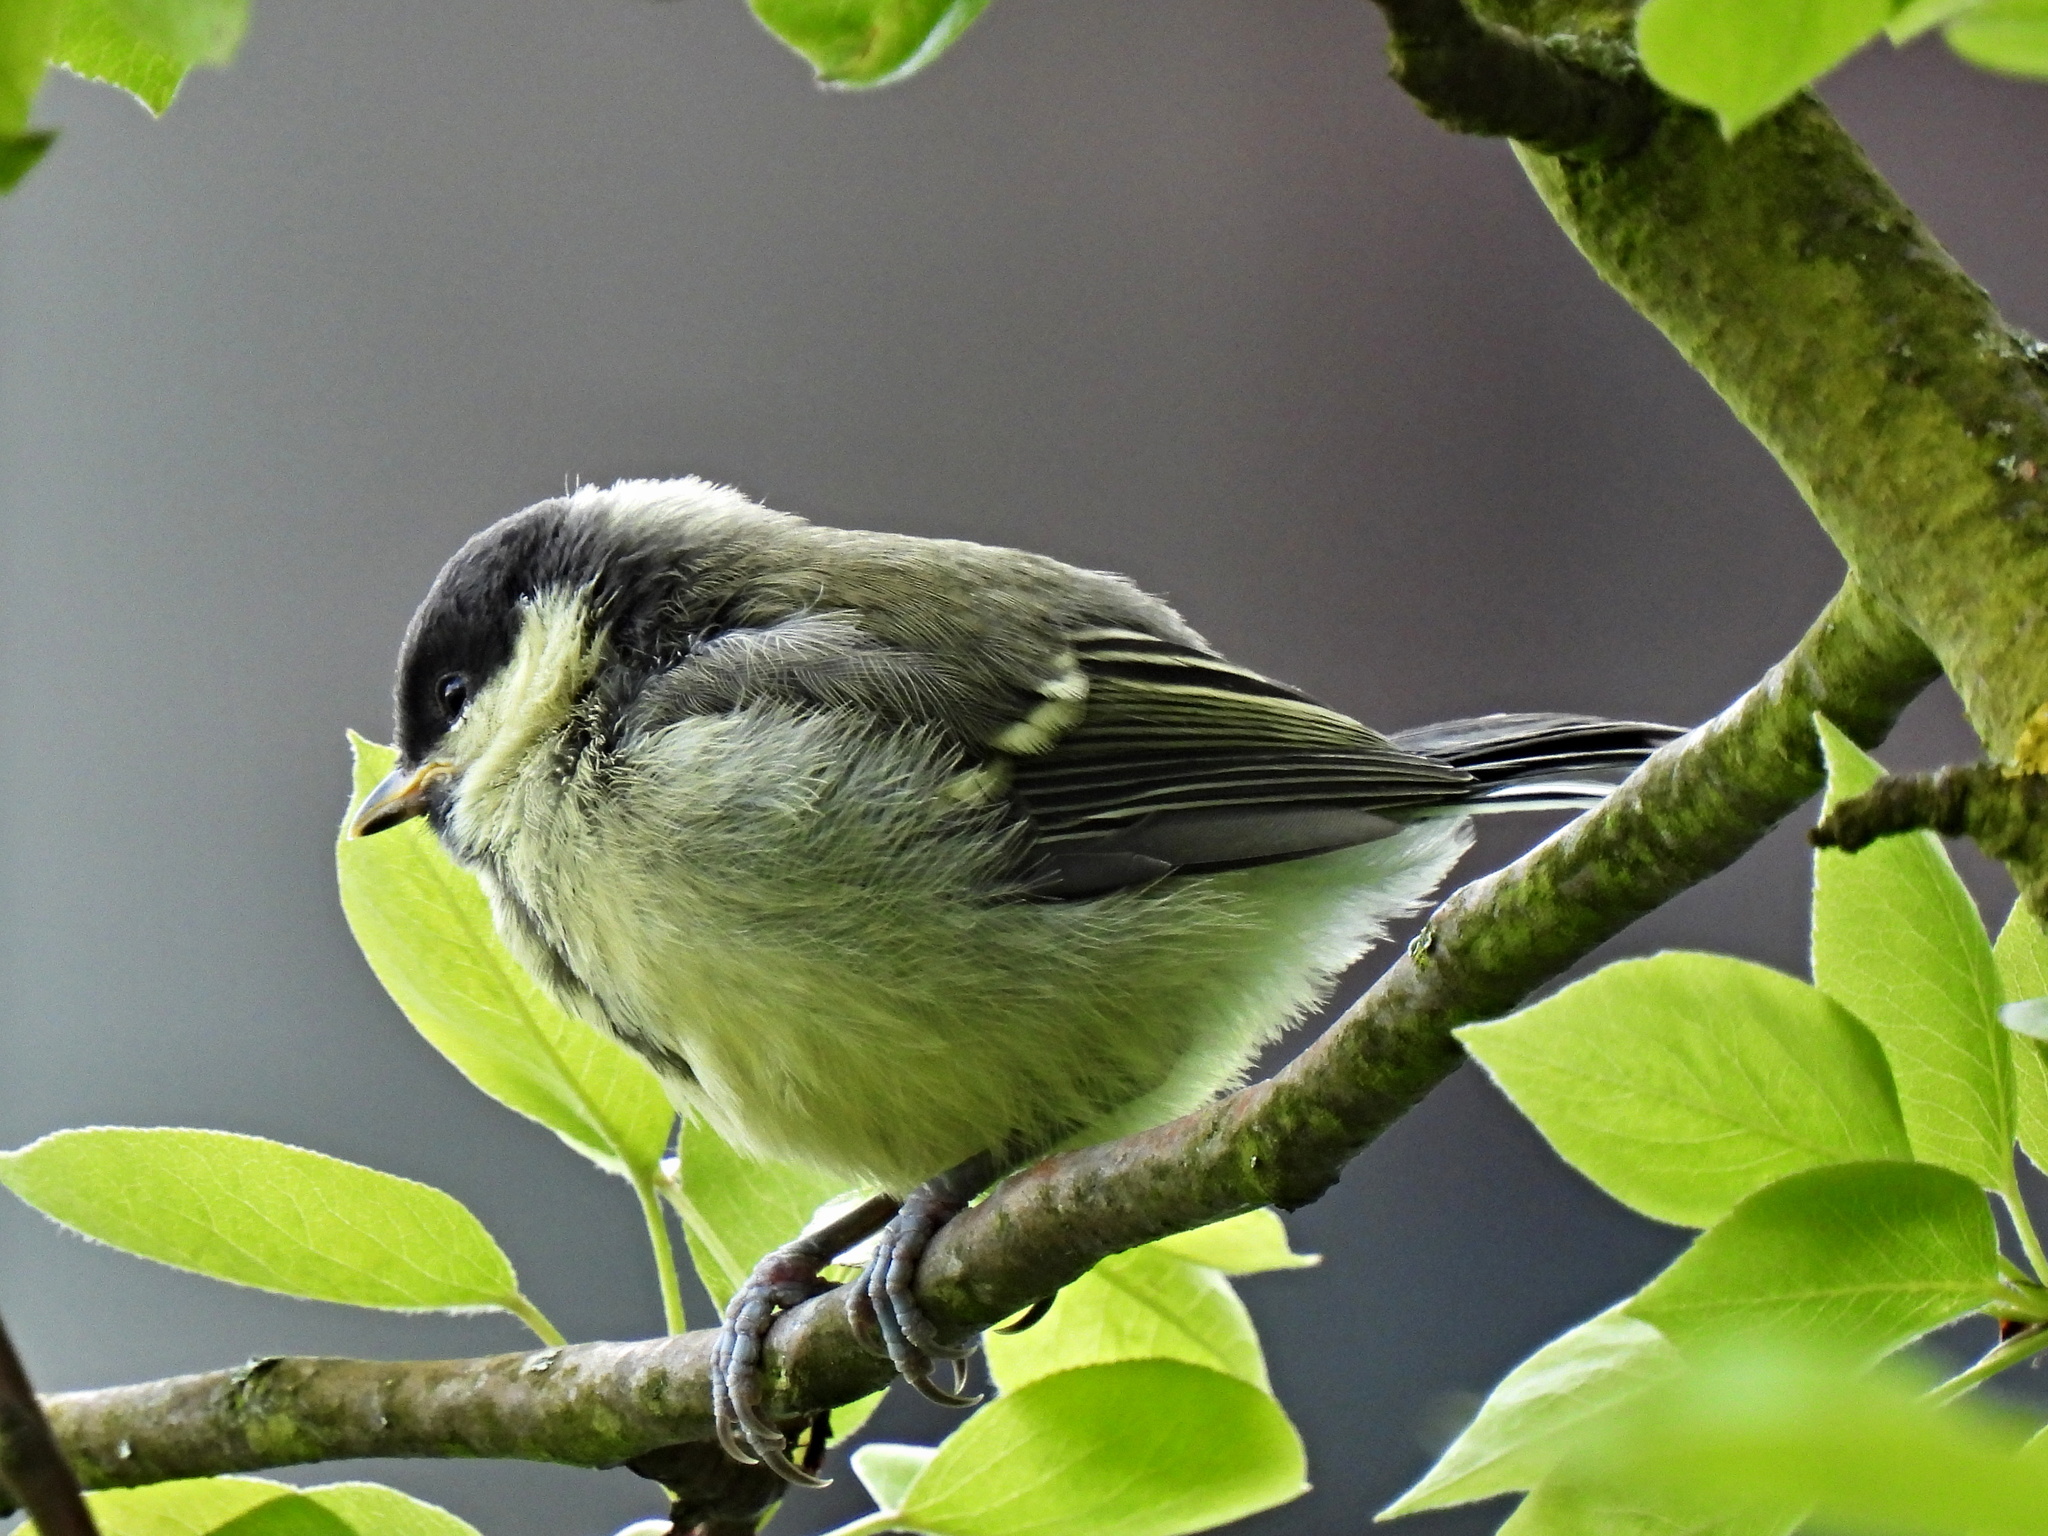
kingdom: Animalia
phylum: Chordata
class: Aves
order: Passeriformes
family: Paridae
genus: Parus
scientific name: Parus major
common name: Great tit
